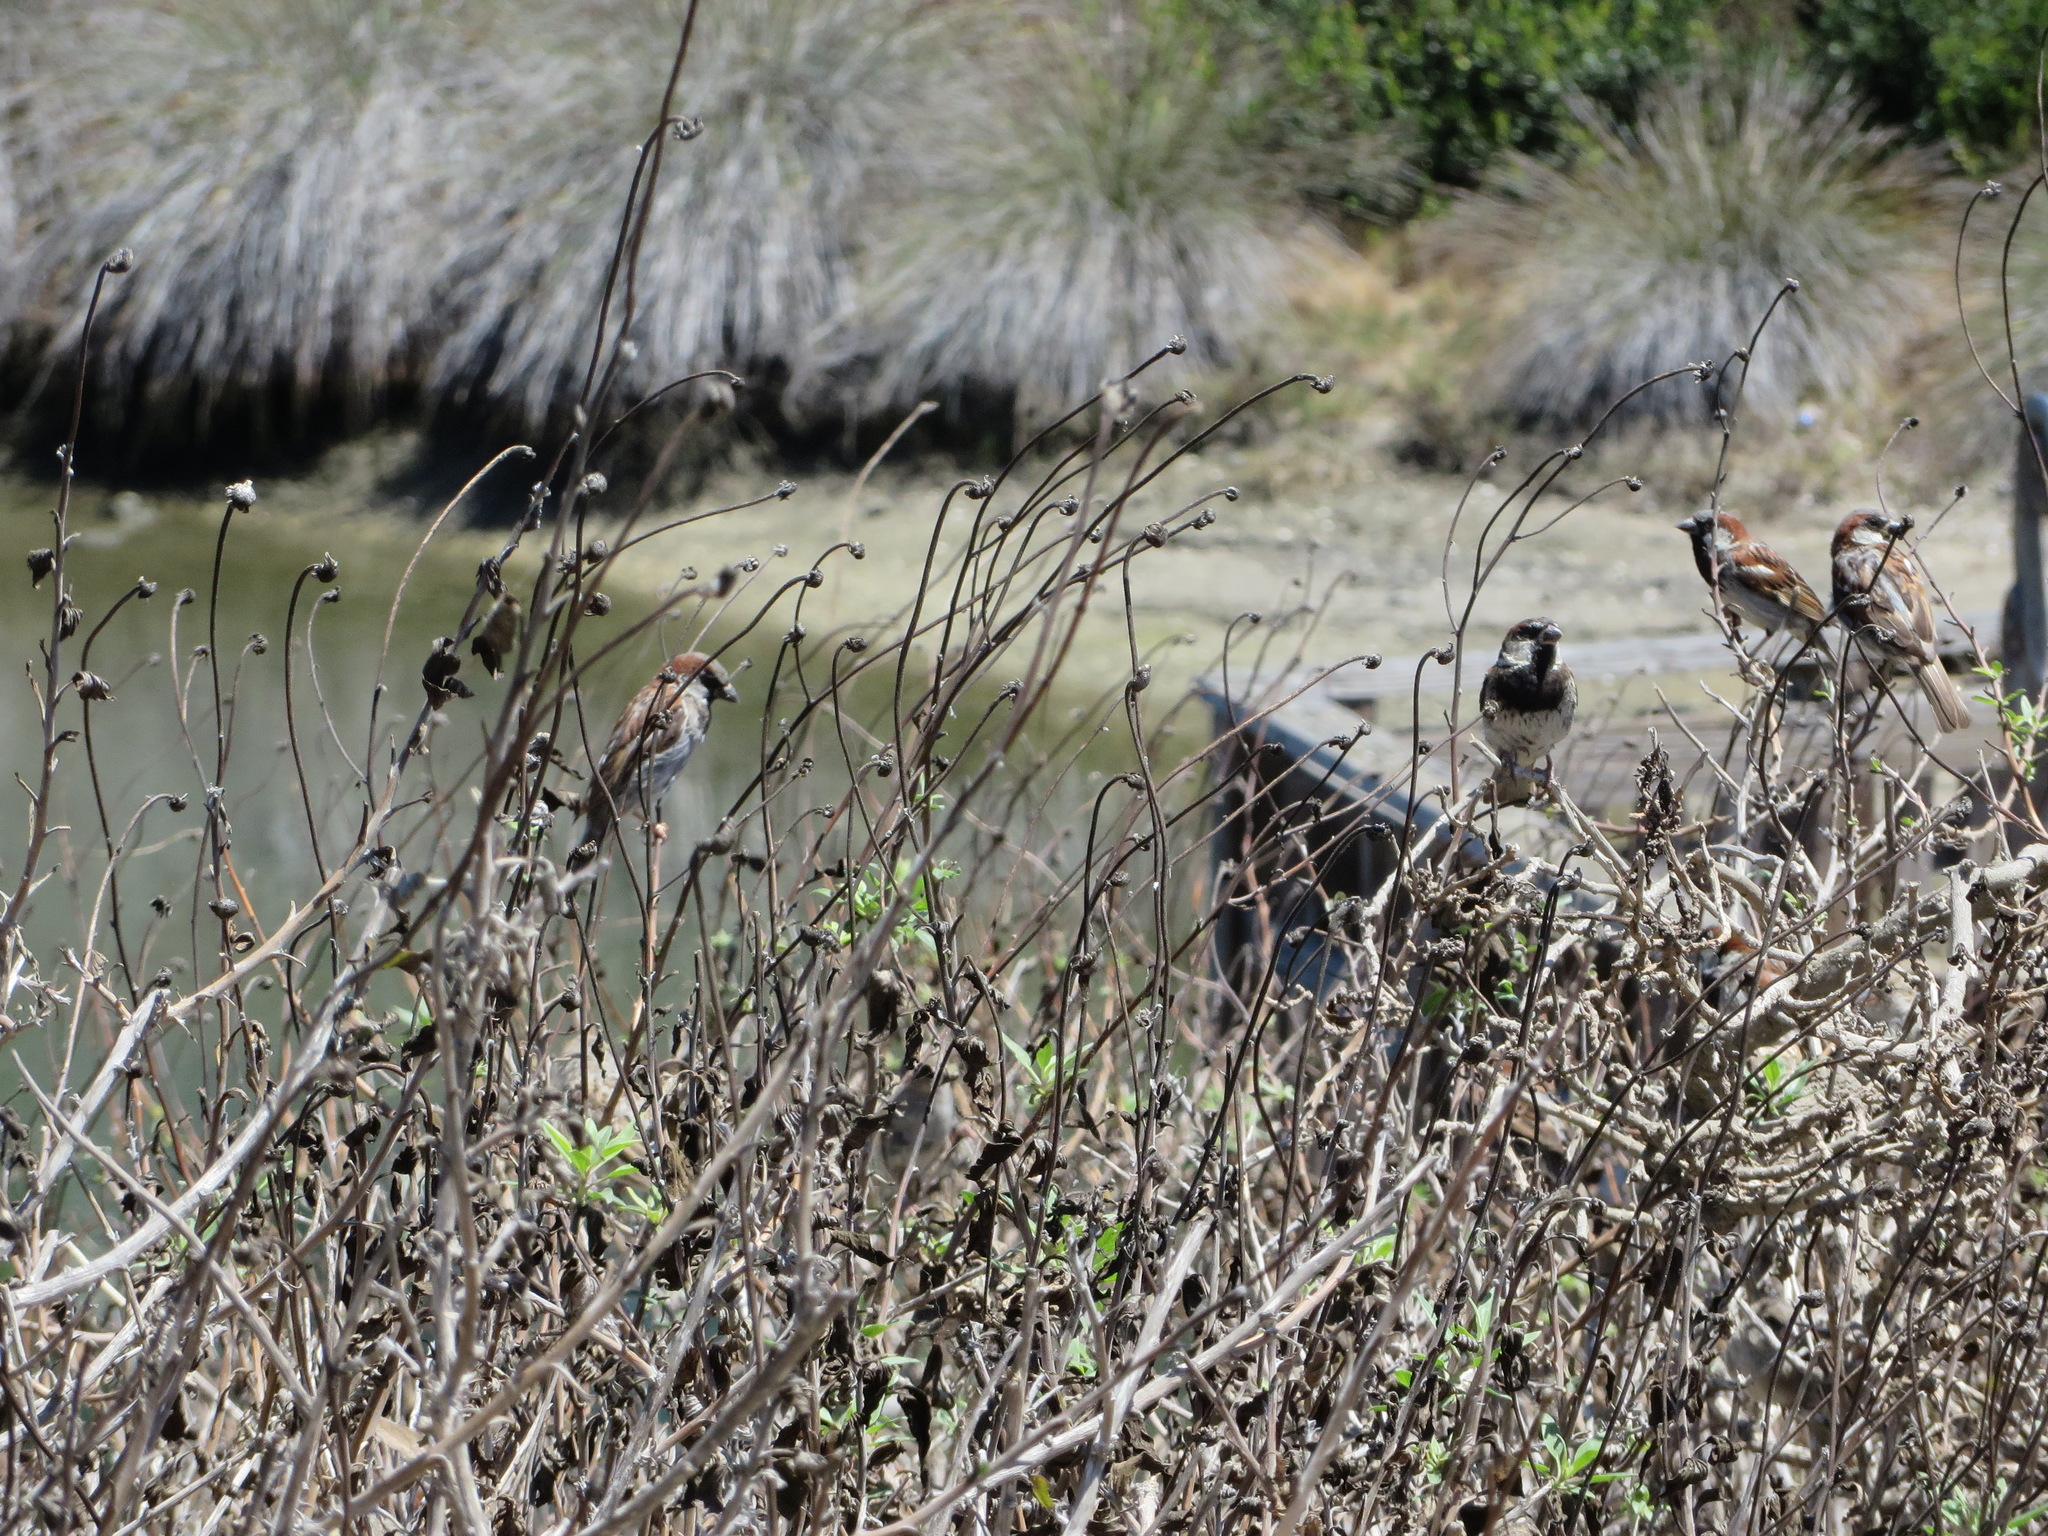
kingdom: Animalia
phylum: Chordata
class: Aves
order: Passeriformes
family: Passeridae
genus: Passer
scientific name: Passer domesticus
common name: House sparrow
